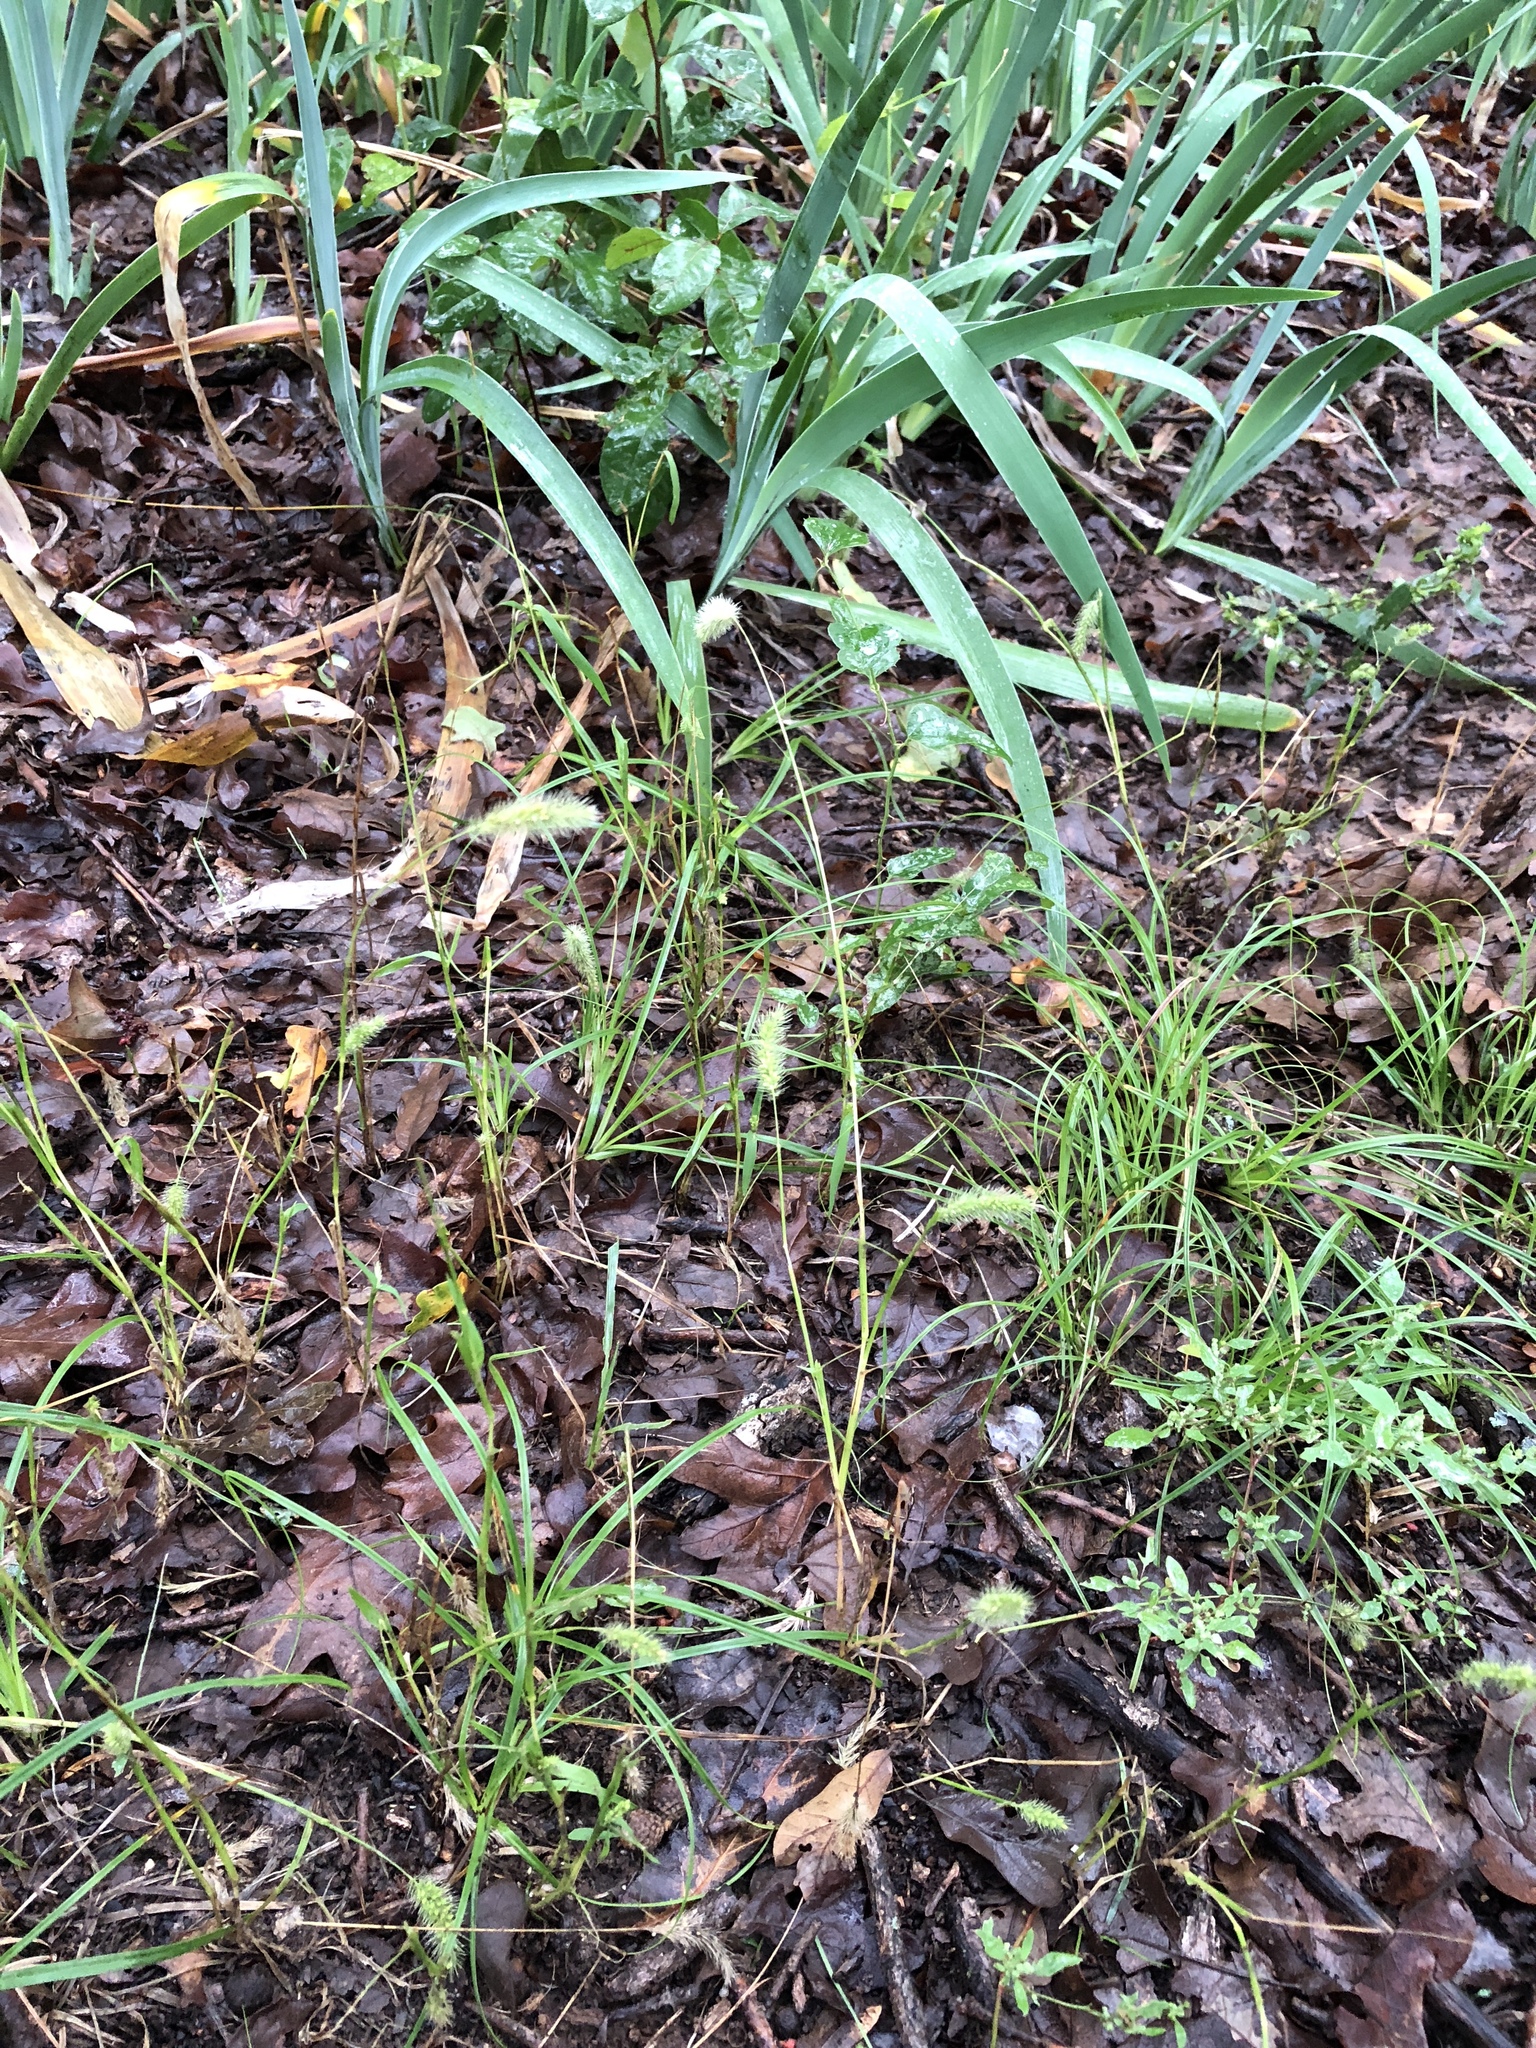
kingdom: Plantae
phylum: Tracheophyta
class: Liliopsida
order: Poales
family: Poaceae
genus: Setaria
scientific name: Setaria viridis
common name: Green bristlegrass
